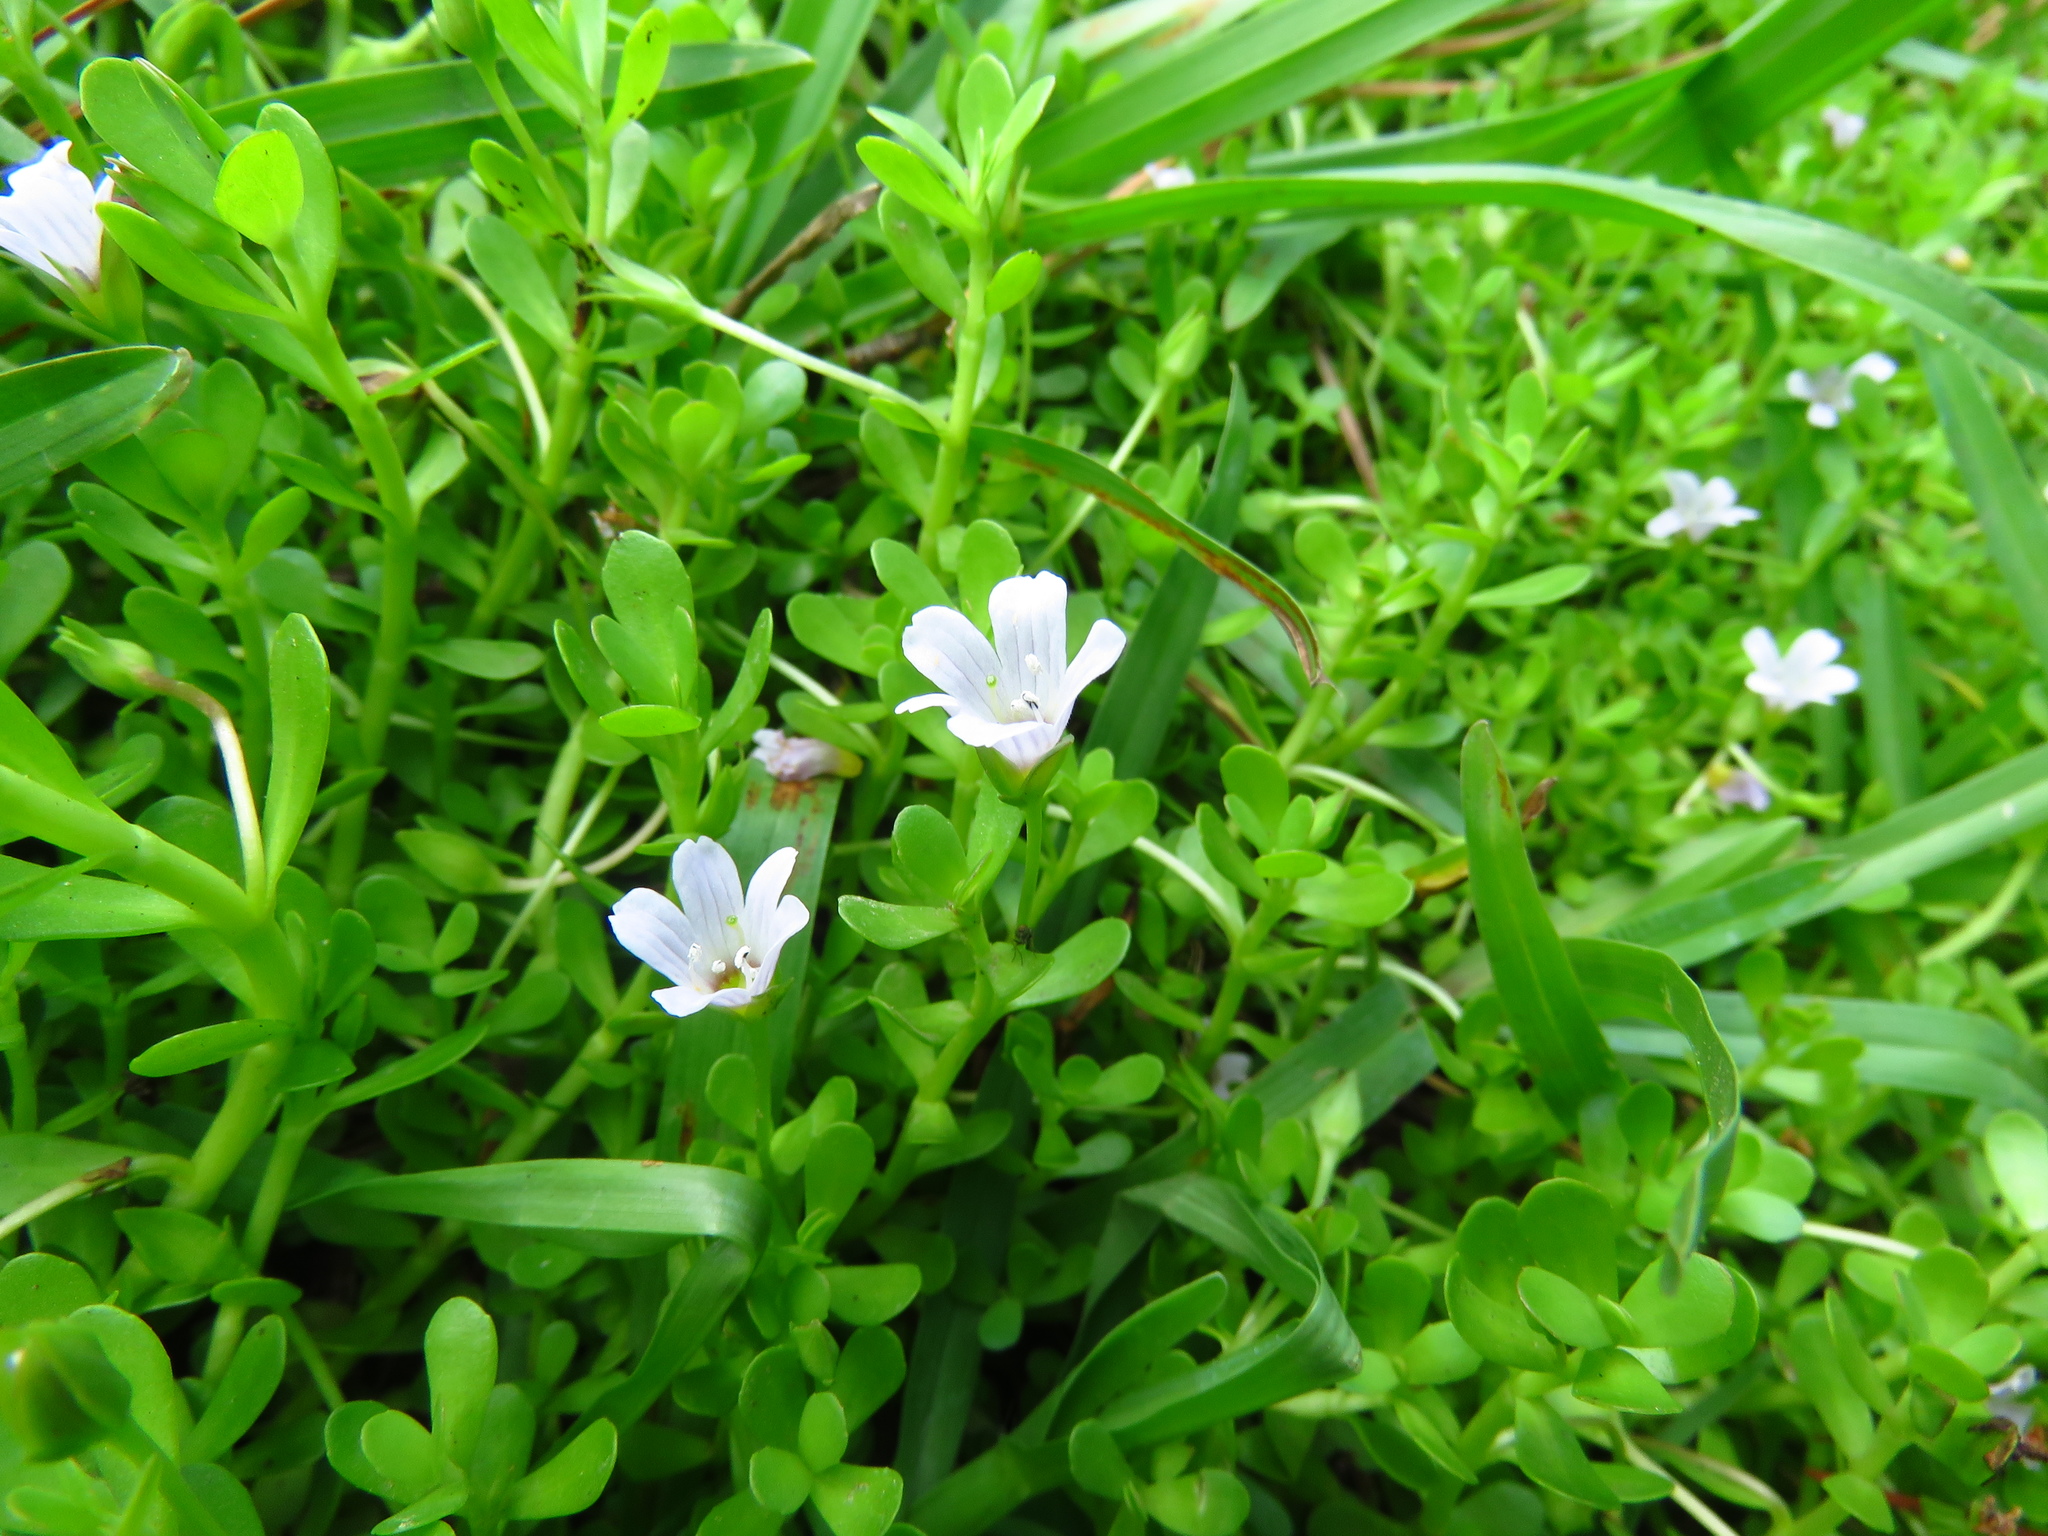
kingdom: Plantae
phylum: Tracheophyta
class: Magnoliopsida
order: Lamiales
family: Plantaginaceae
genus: Bacopa
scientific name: Bacopa monnieri
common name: Indian-pennywort
